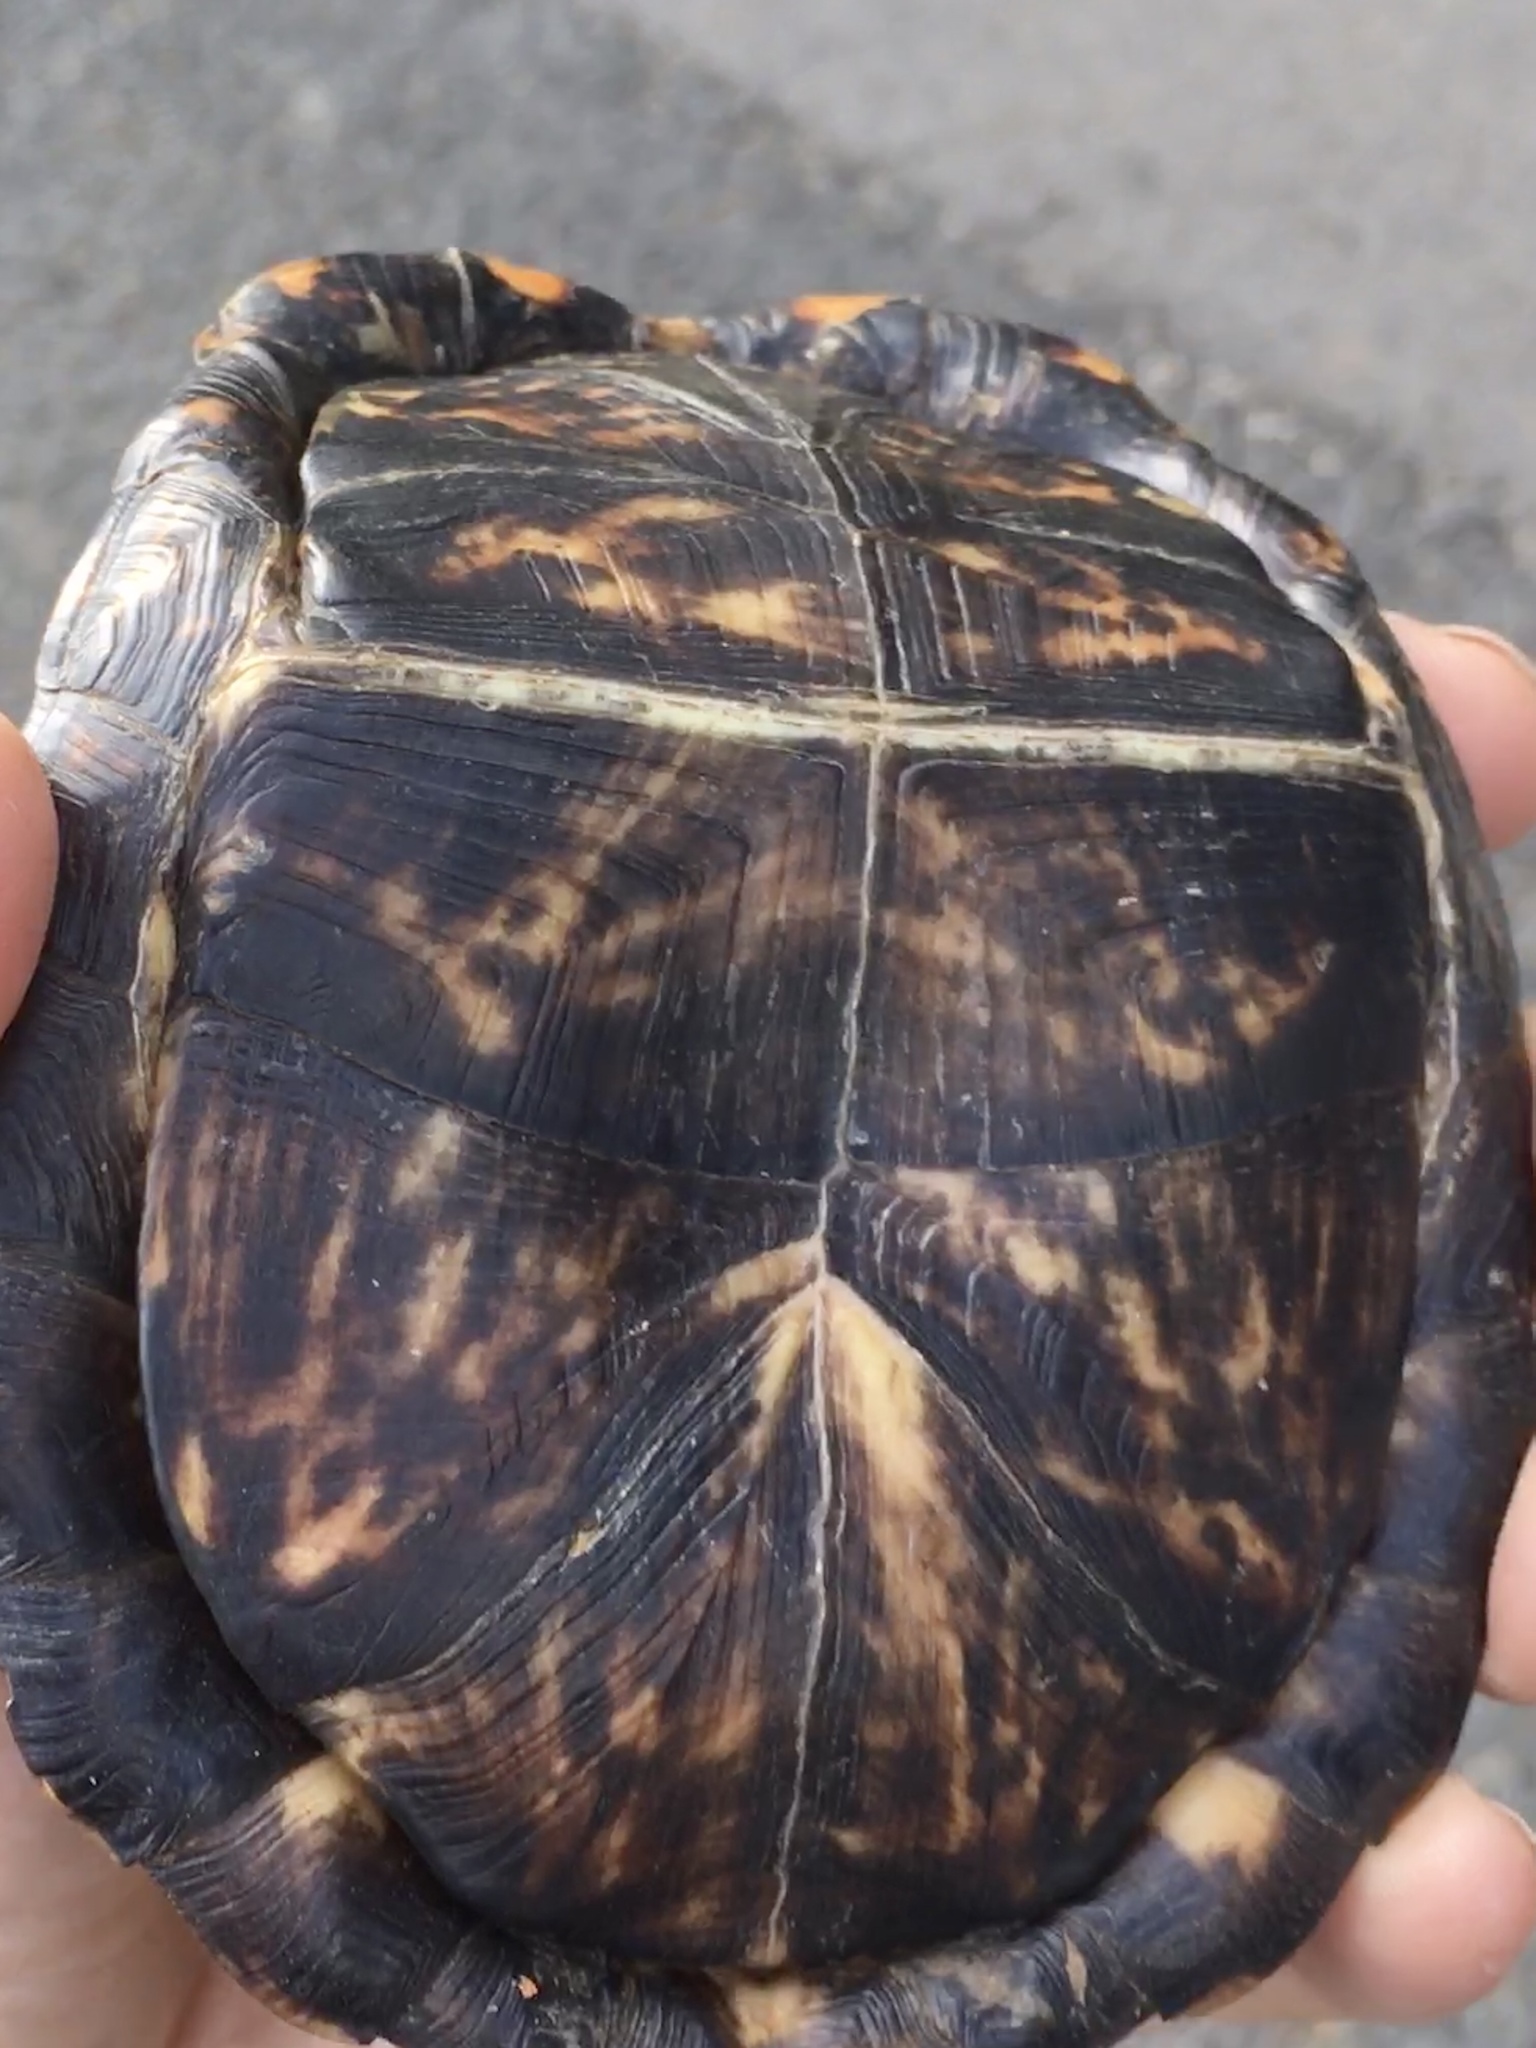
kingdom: Animalia
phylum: Chordata
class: Testudines
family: Emydidae
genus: Terrapene
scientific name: Terrapene carolina
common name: Common box turtle
